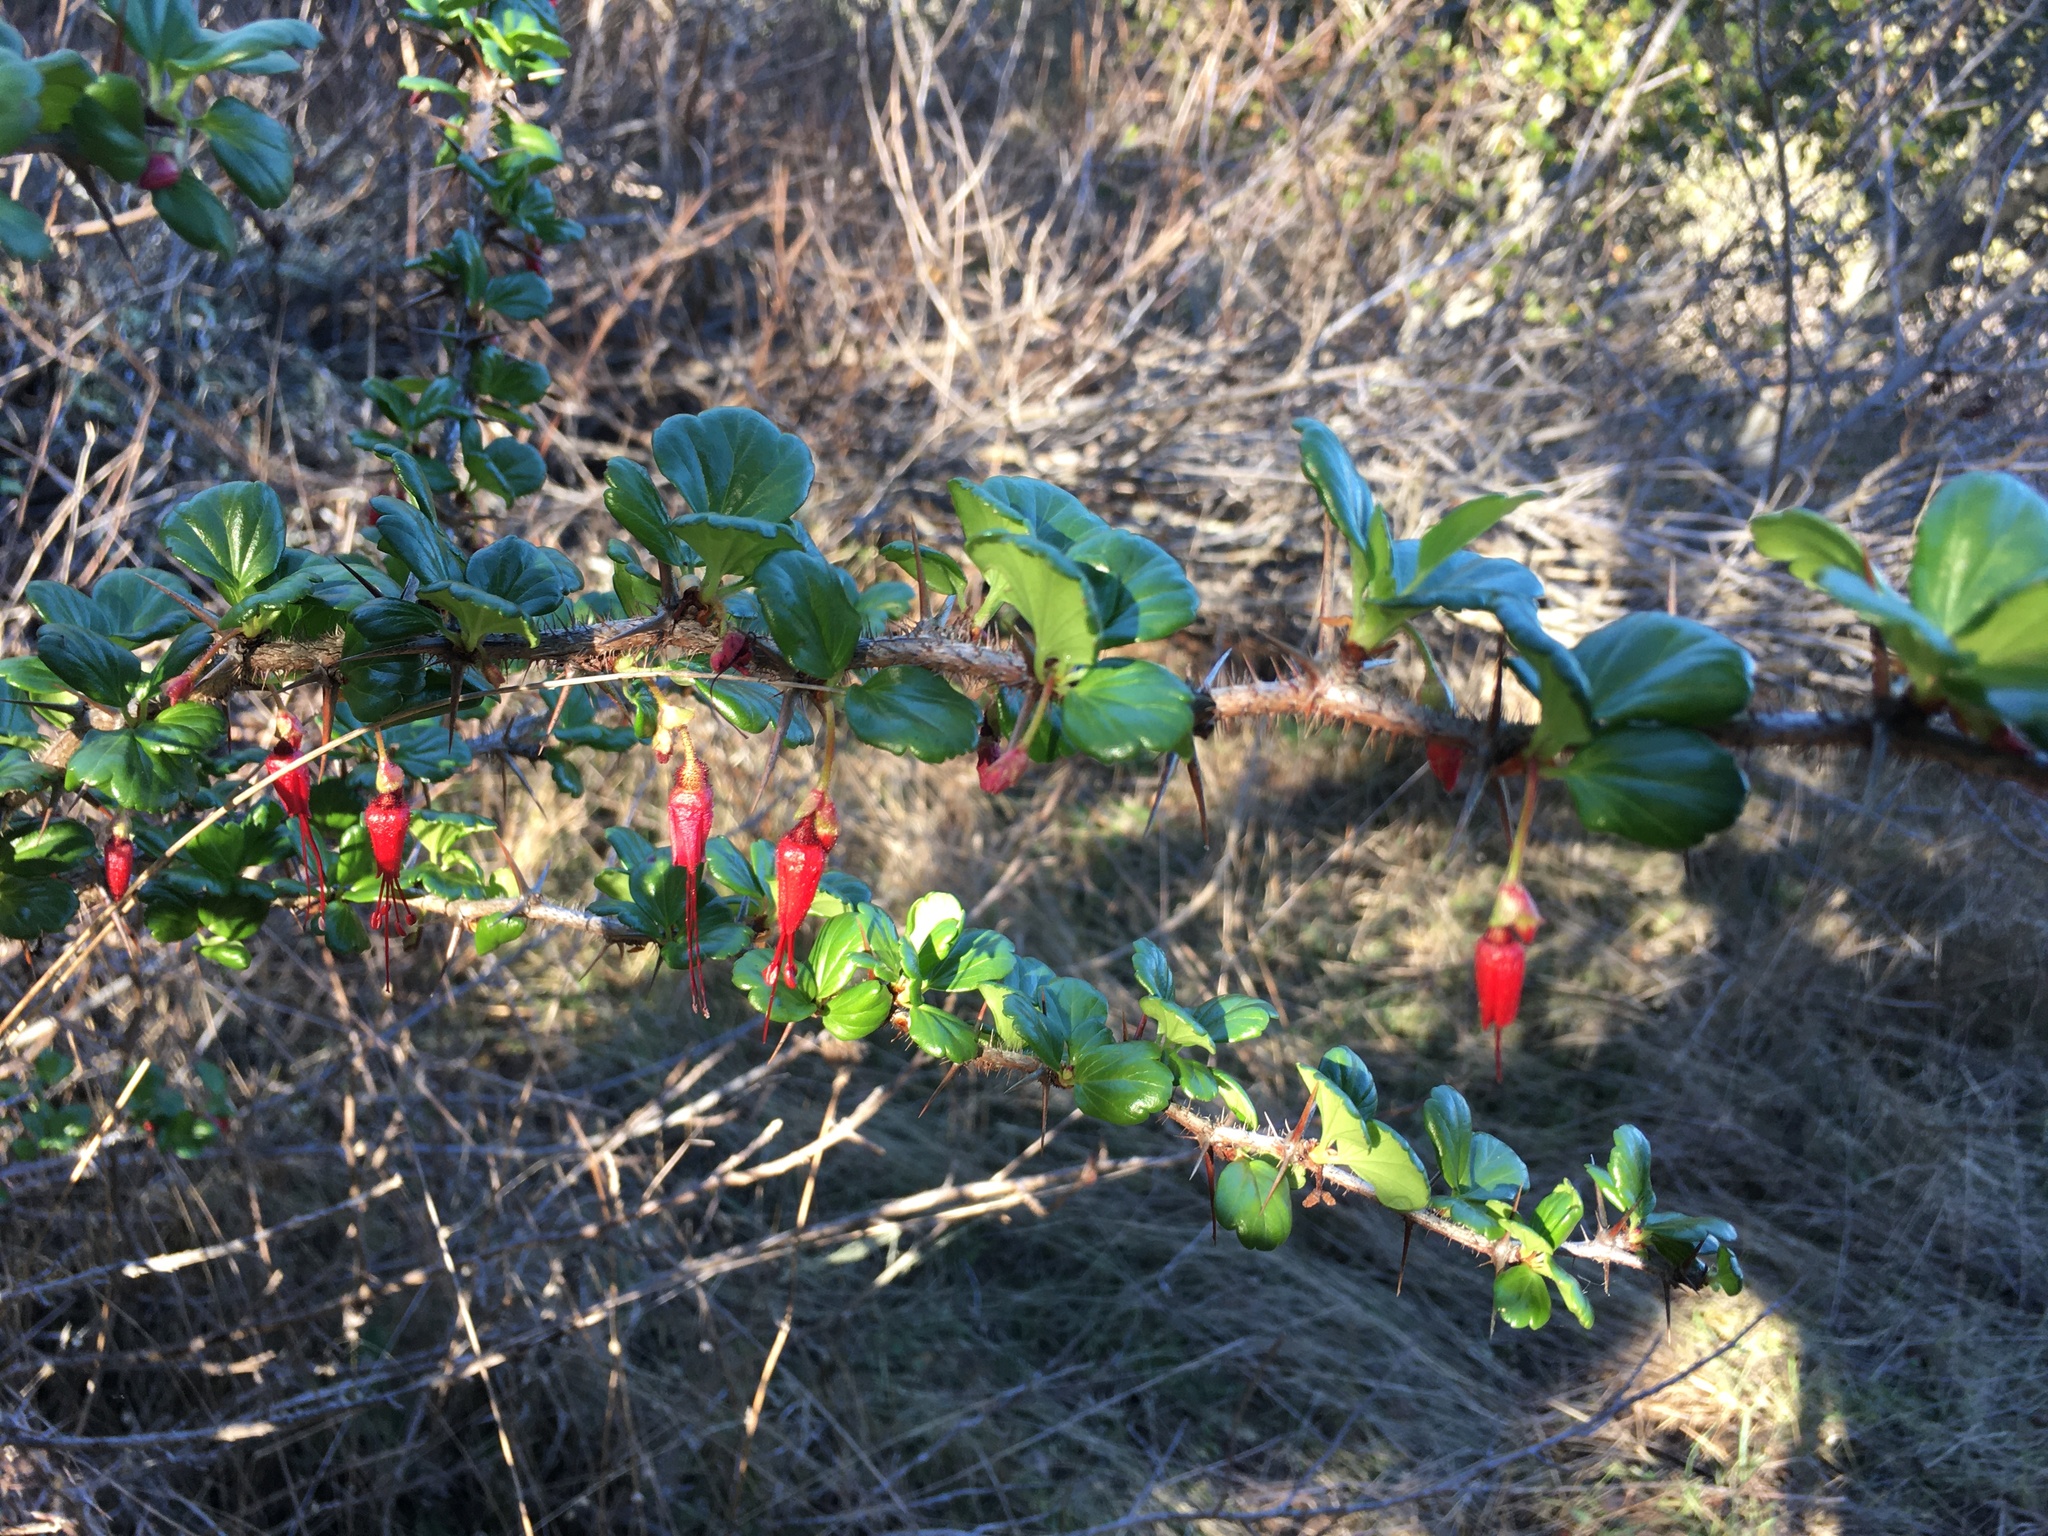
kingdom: Plantae
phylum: Tracheophyta
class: Magnoliopsida
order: Saxifragales
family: Grossulariaceae
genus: Ribes
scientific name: Ribes speciosum
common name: Fuchsia-flower gooseberry
